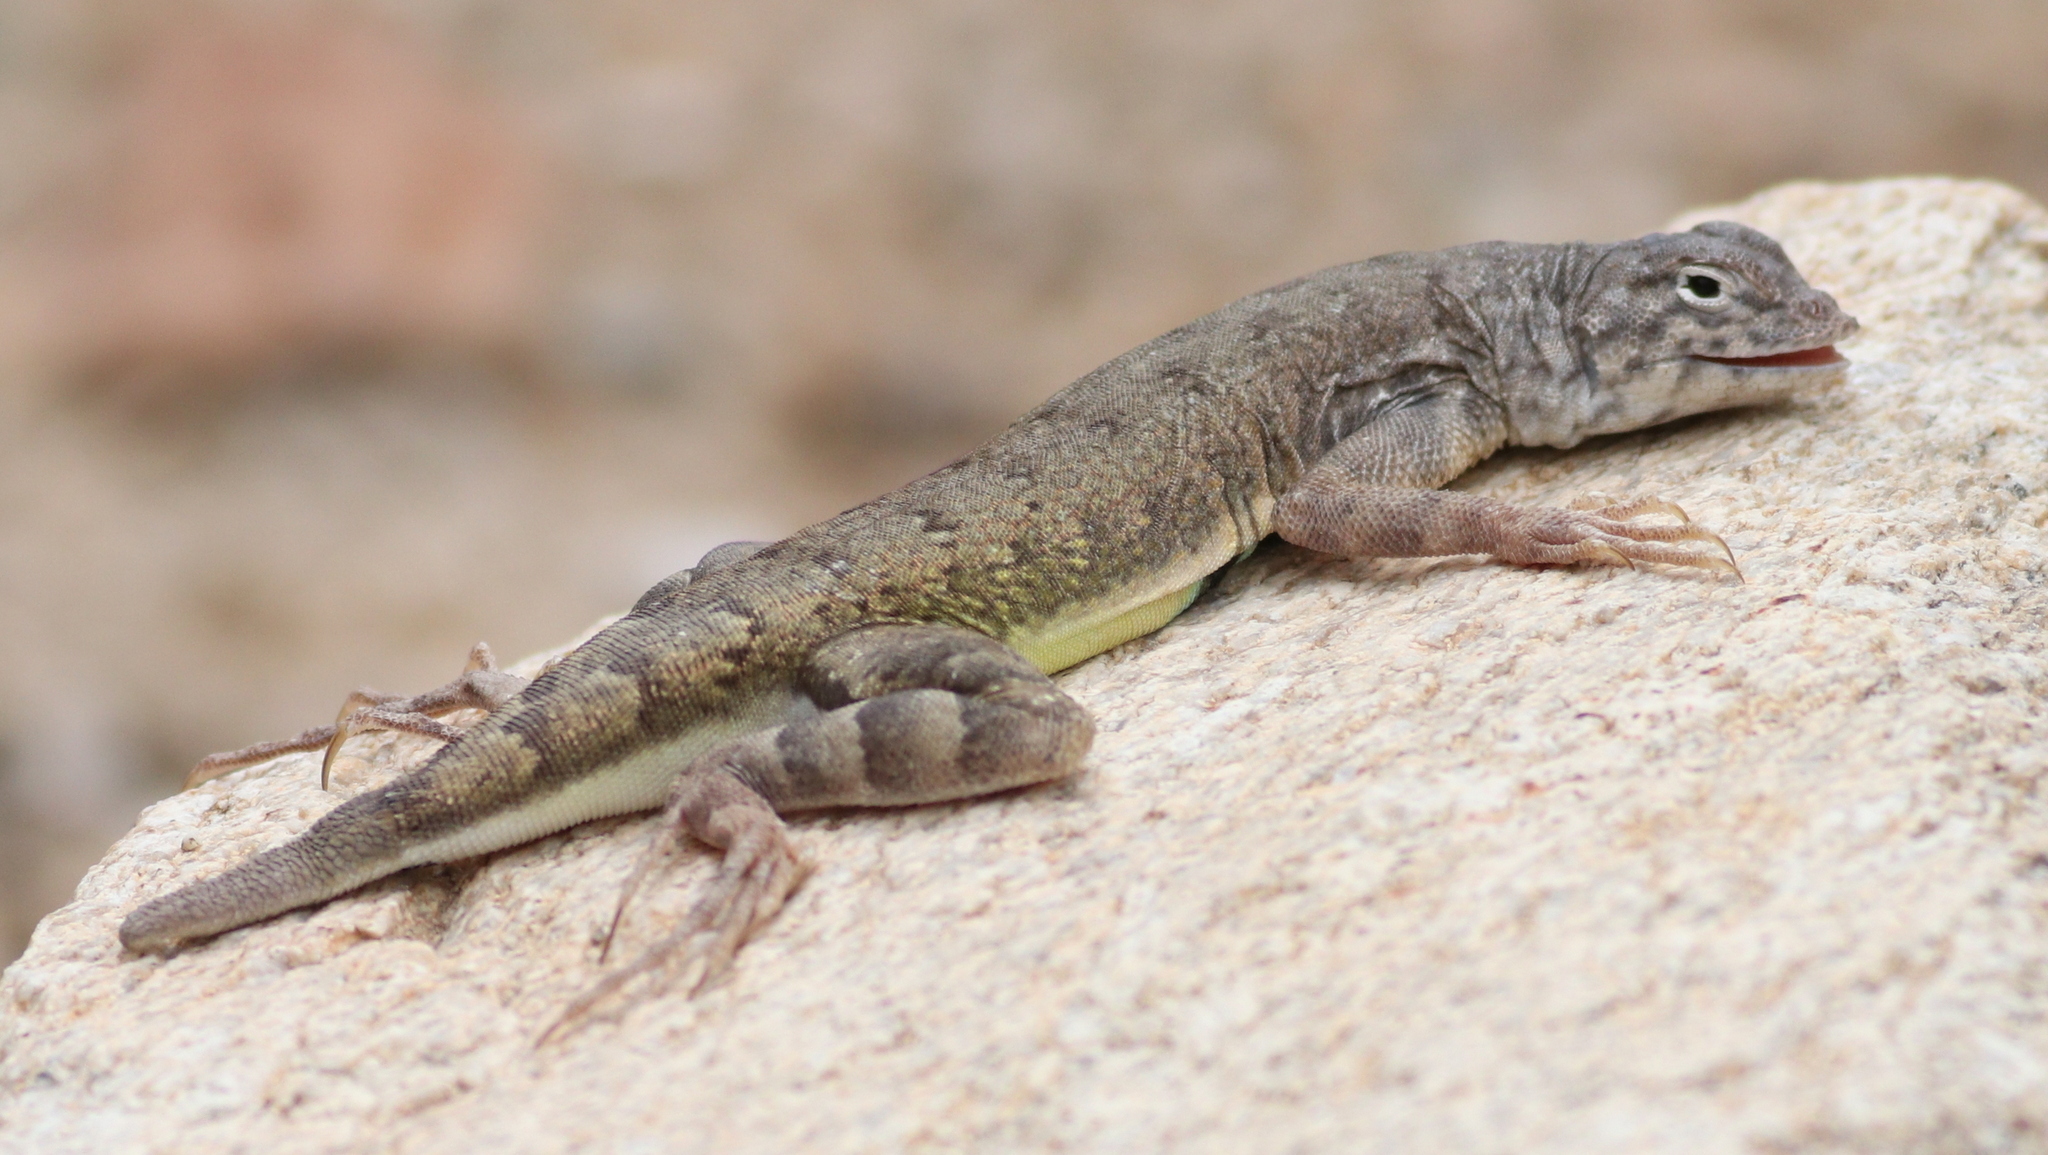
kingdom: Animalia
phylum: Chordata
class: Squamata
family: Phrynosomatidae
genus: Callisaurus
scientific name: Callisaurus draconoides
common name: Zebra-tailed lizard
